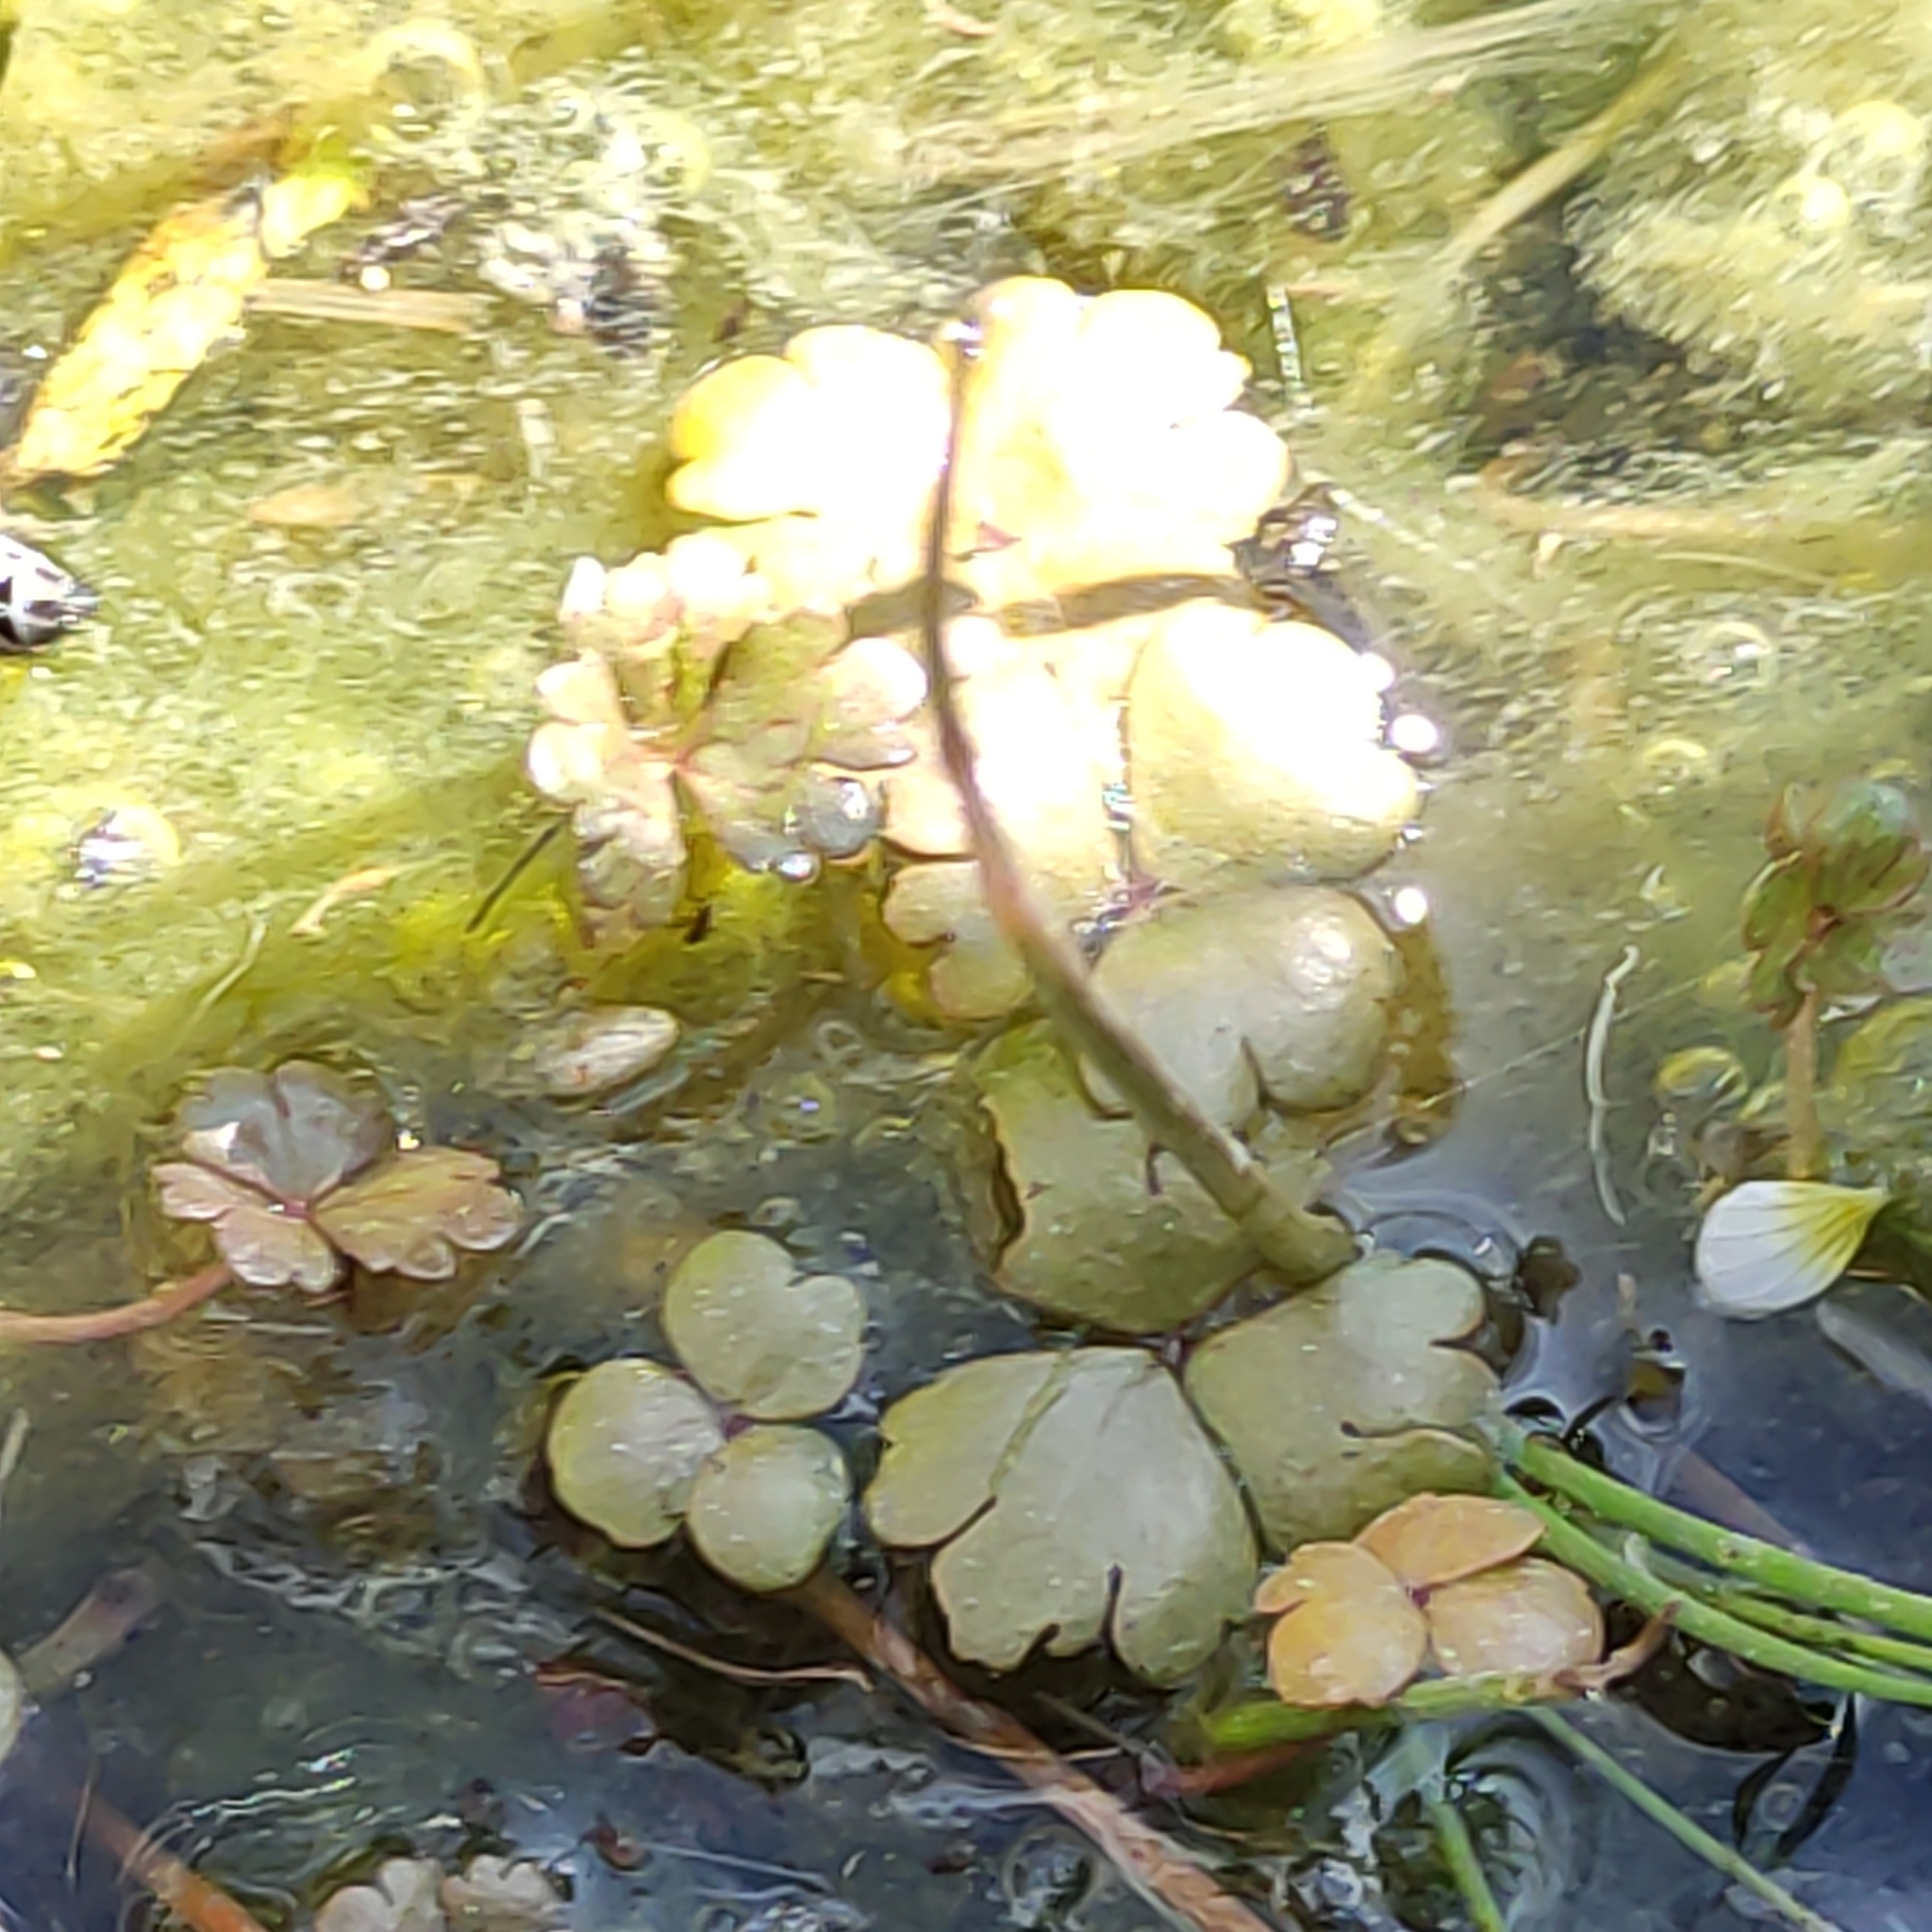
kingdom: Plantae
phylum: Tracheophyta
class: Magnoliopsida
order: Apiales
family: Araliaceae
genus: Hydrocotyle
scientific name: Hydrocotyle sulcata
